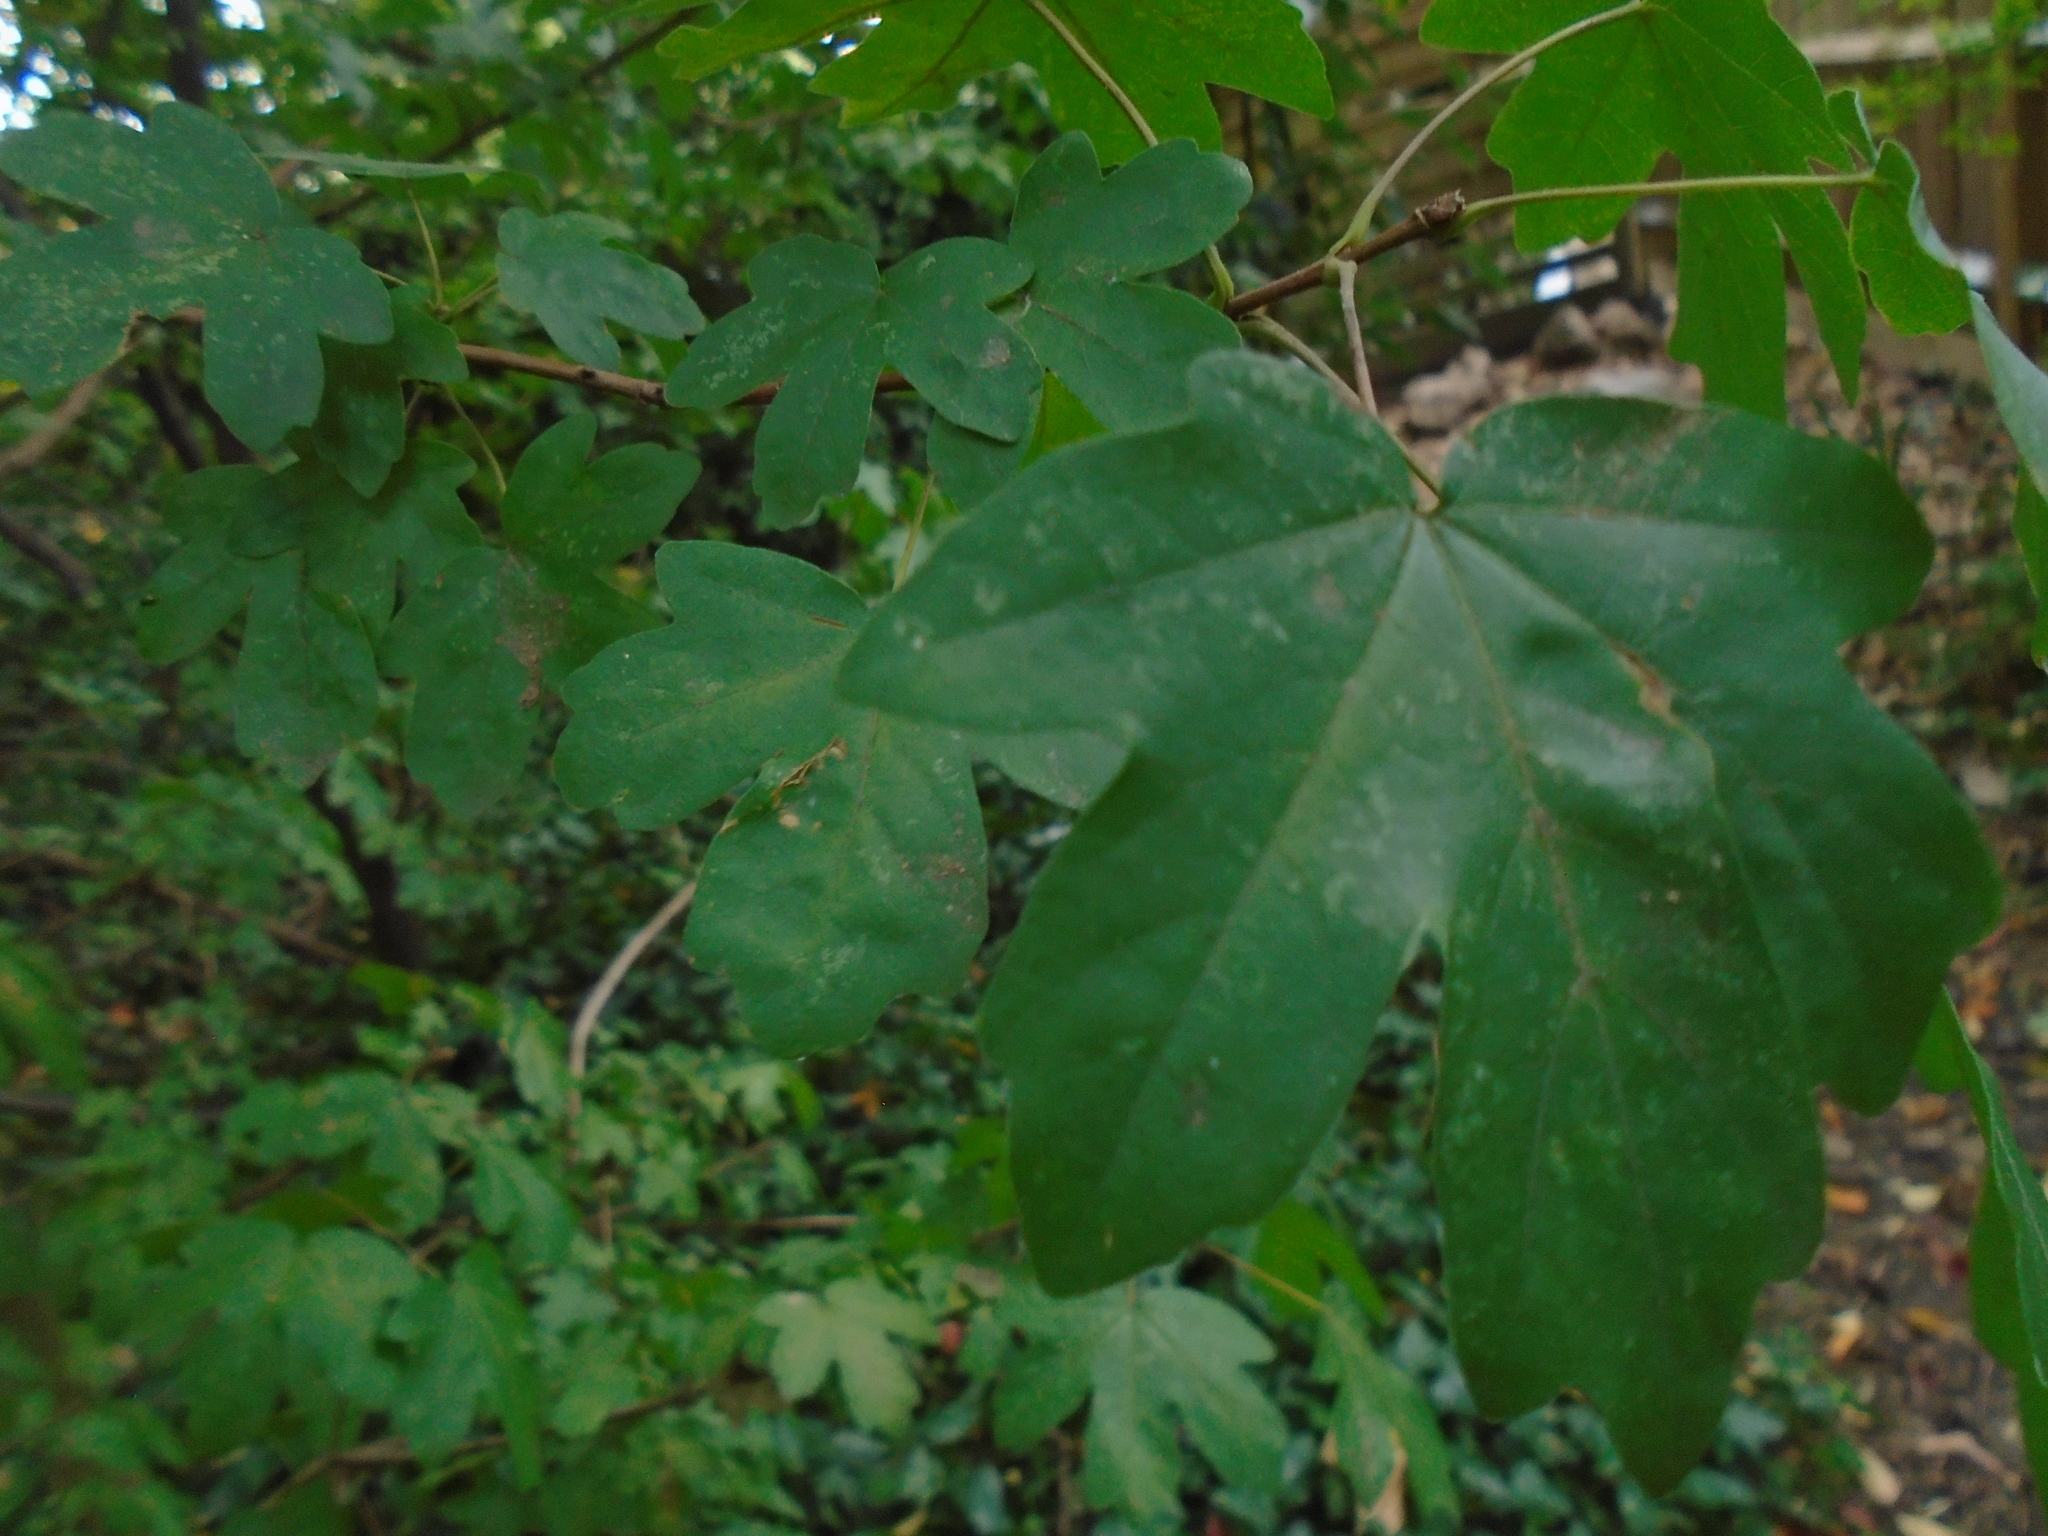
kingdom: Plantae
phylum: Tracheophyta
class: Magnoliopsida
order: Sapindales
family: Sapindaceae
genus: Acer
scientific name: Acer campestre
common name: Field maple
